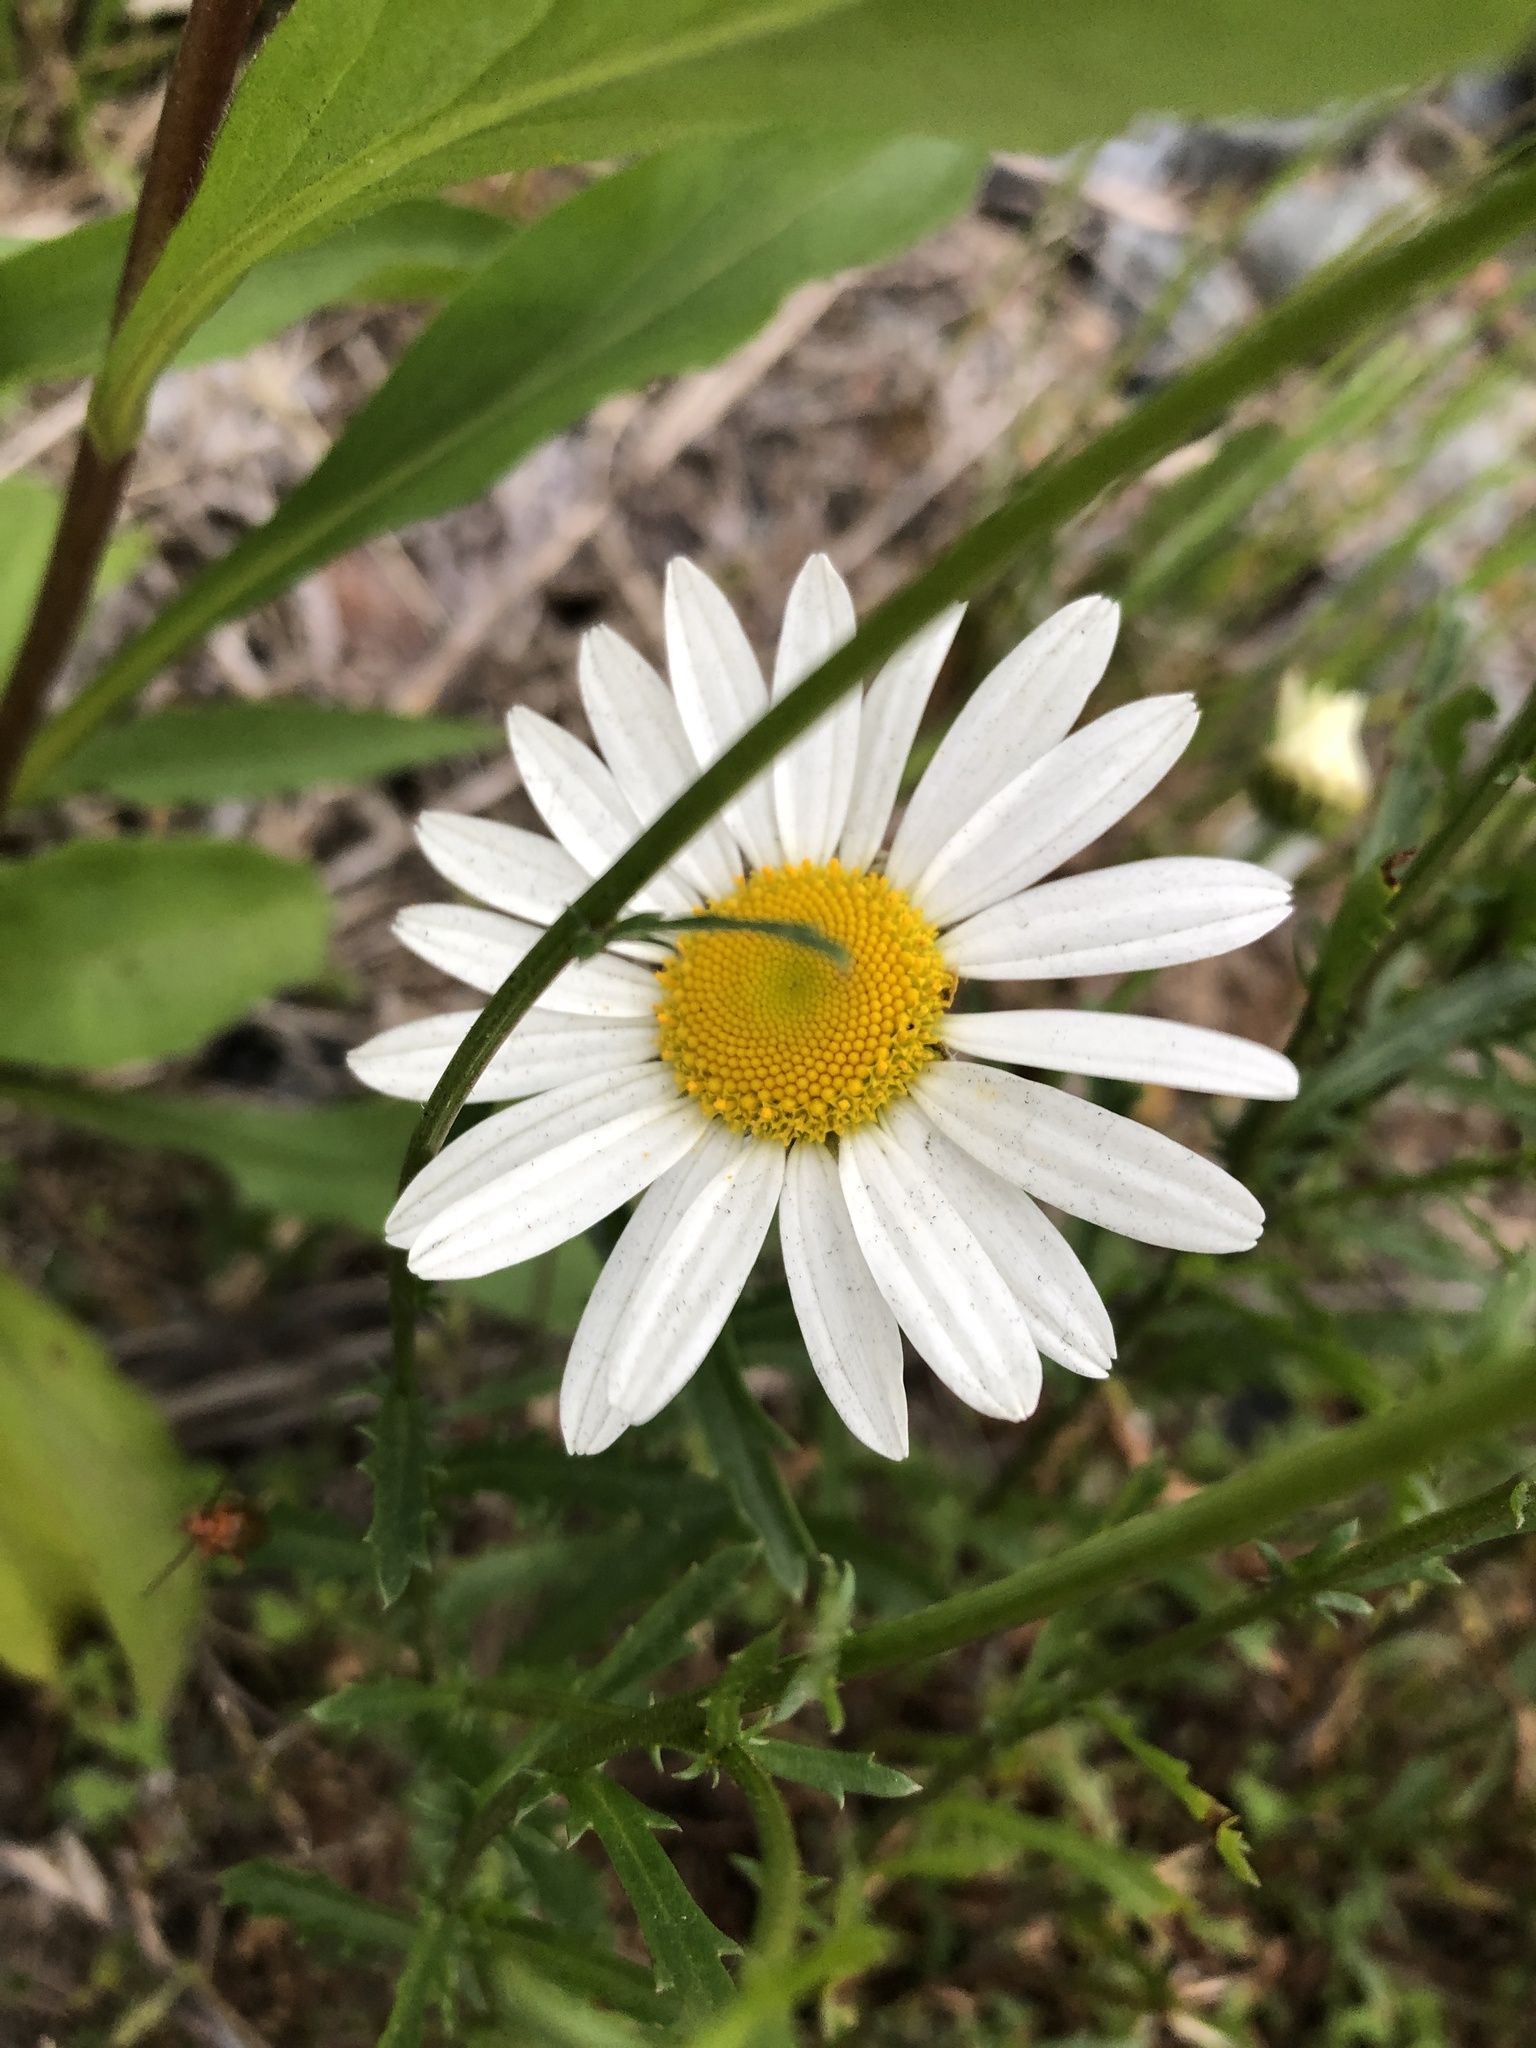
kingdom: Plantae
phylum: Tracheophyta
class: Magnoliopsida
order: Asterales
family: Asteraceae
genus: Leucanthemum
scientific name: Leucanthemum vulgare
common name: Oxeye daisy
